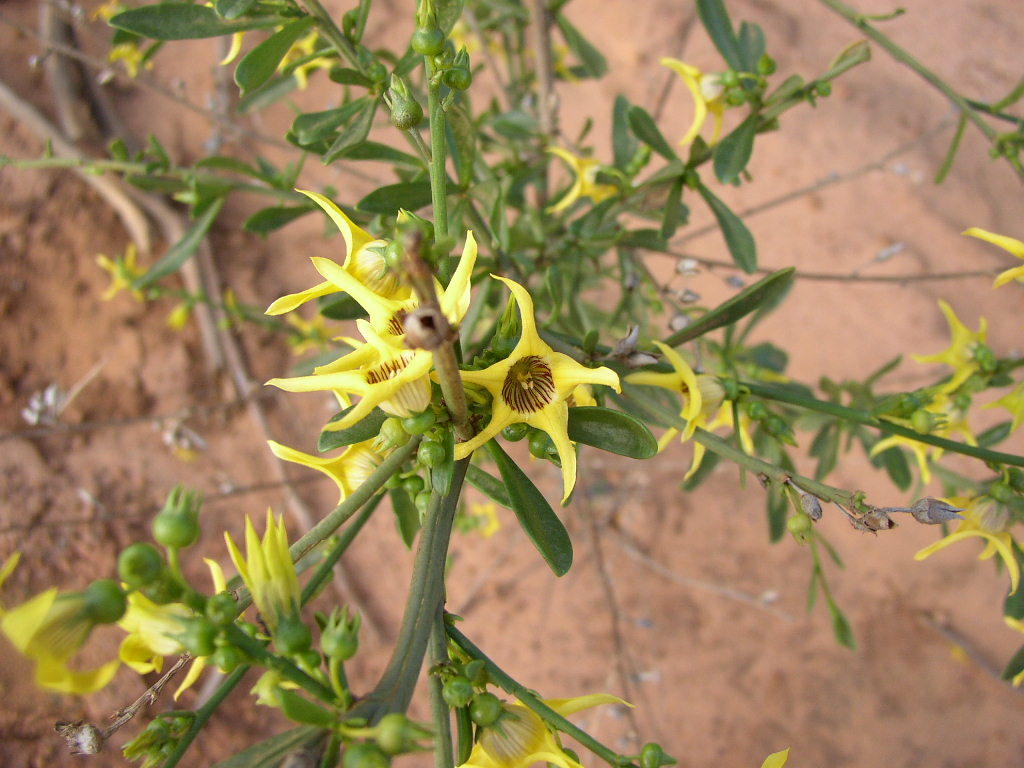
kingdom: Plantae
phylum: Tracheophyta
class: Magnoliopsida
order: Solanales
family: Solanaceae
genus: Anthocercis
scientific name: Anthocercis ilicifolia
